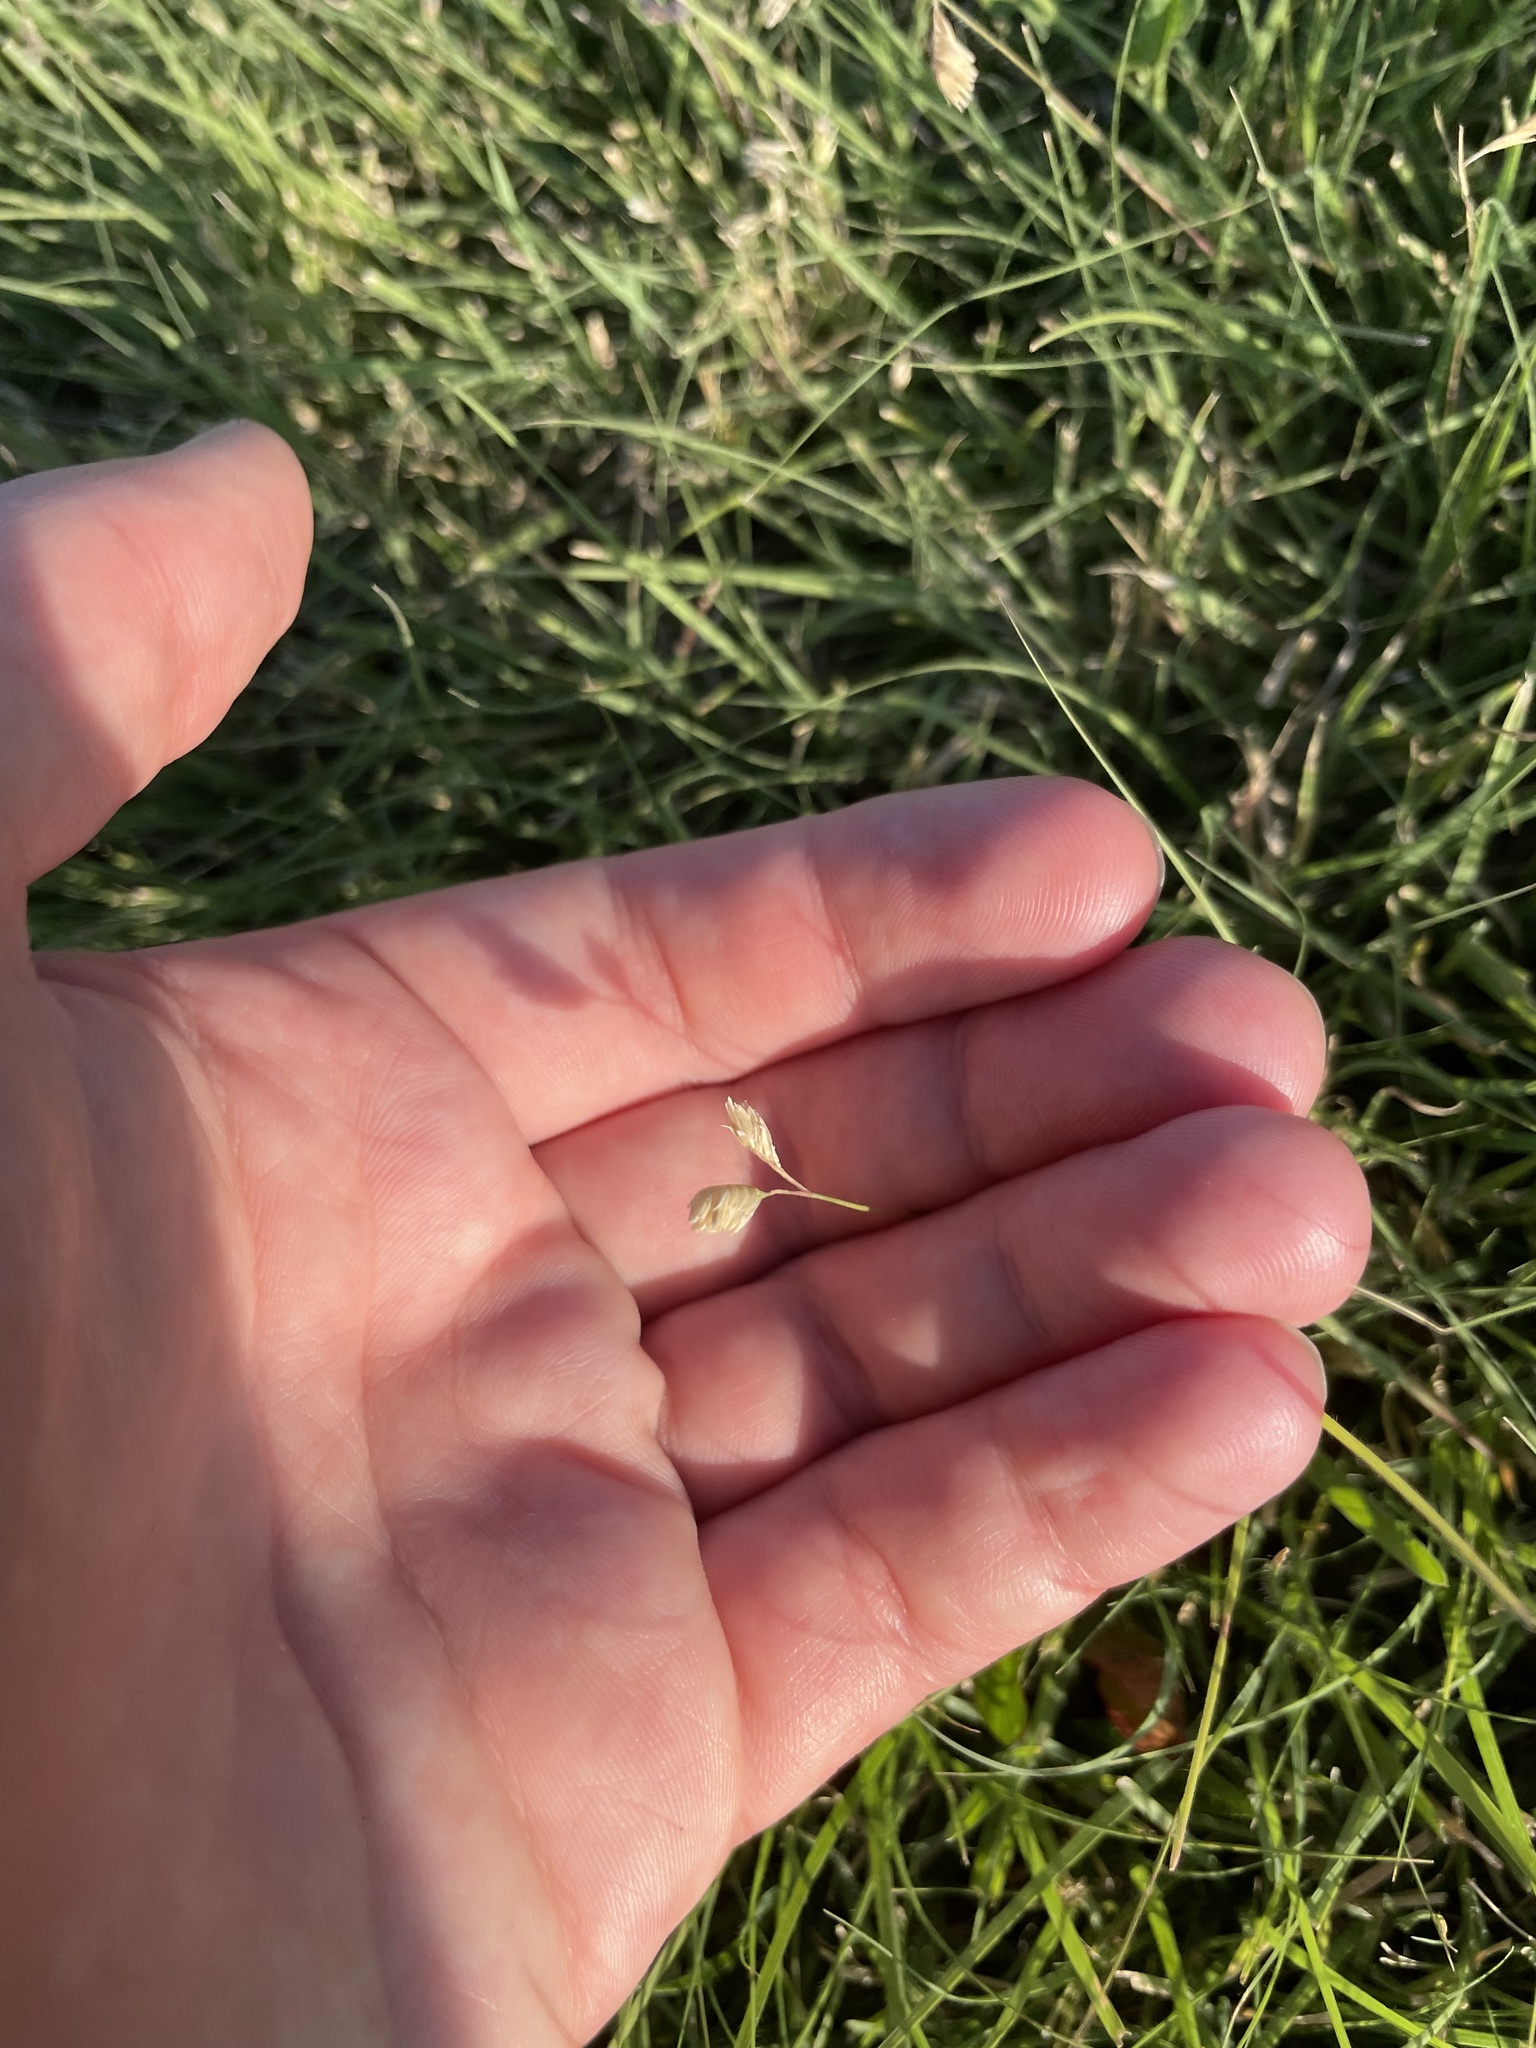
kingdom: Plantae
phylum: Tracheophyta
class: Liliopsida
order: Poales
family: Poaceae
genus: Bouteloua
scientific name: Bouteloua dactyloides
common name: Buffalo grass
